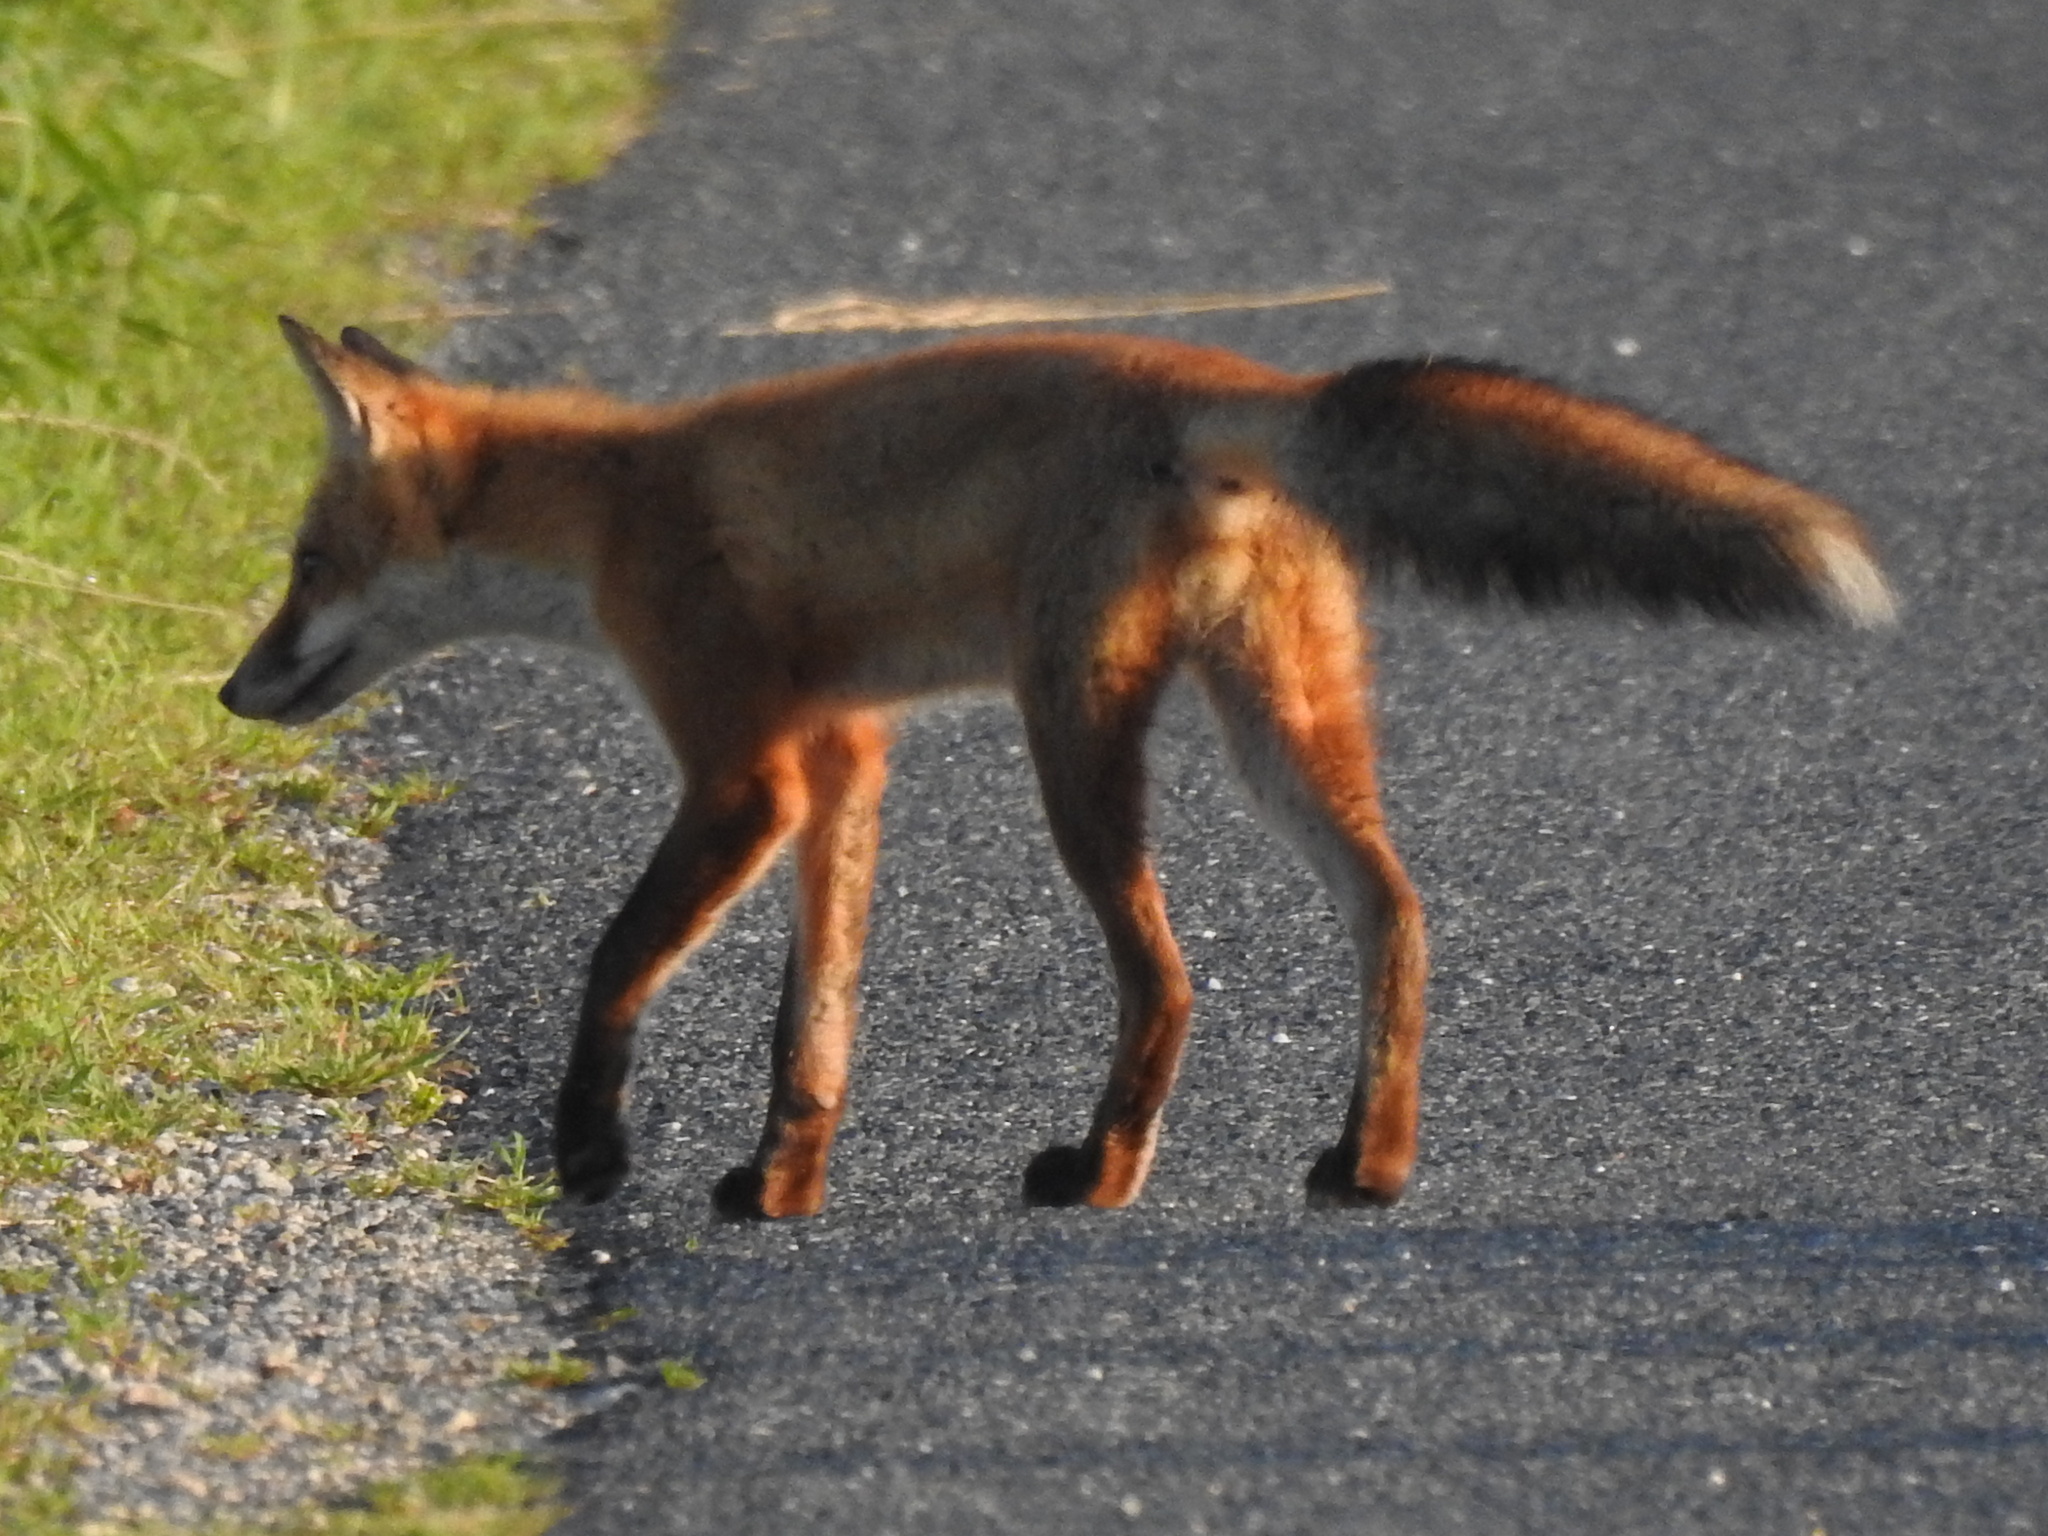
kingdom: Animalia
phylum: Chordata
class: Mammalia
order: Carnivora
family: Canidae
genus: Vulpes
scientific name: Vulpes vulpes
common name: Red fox
